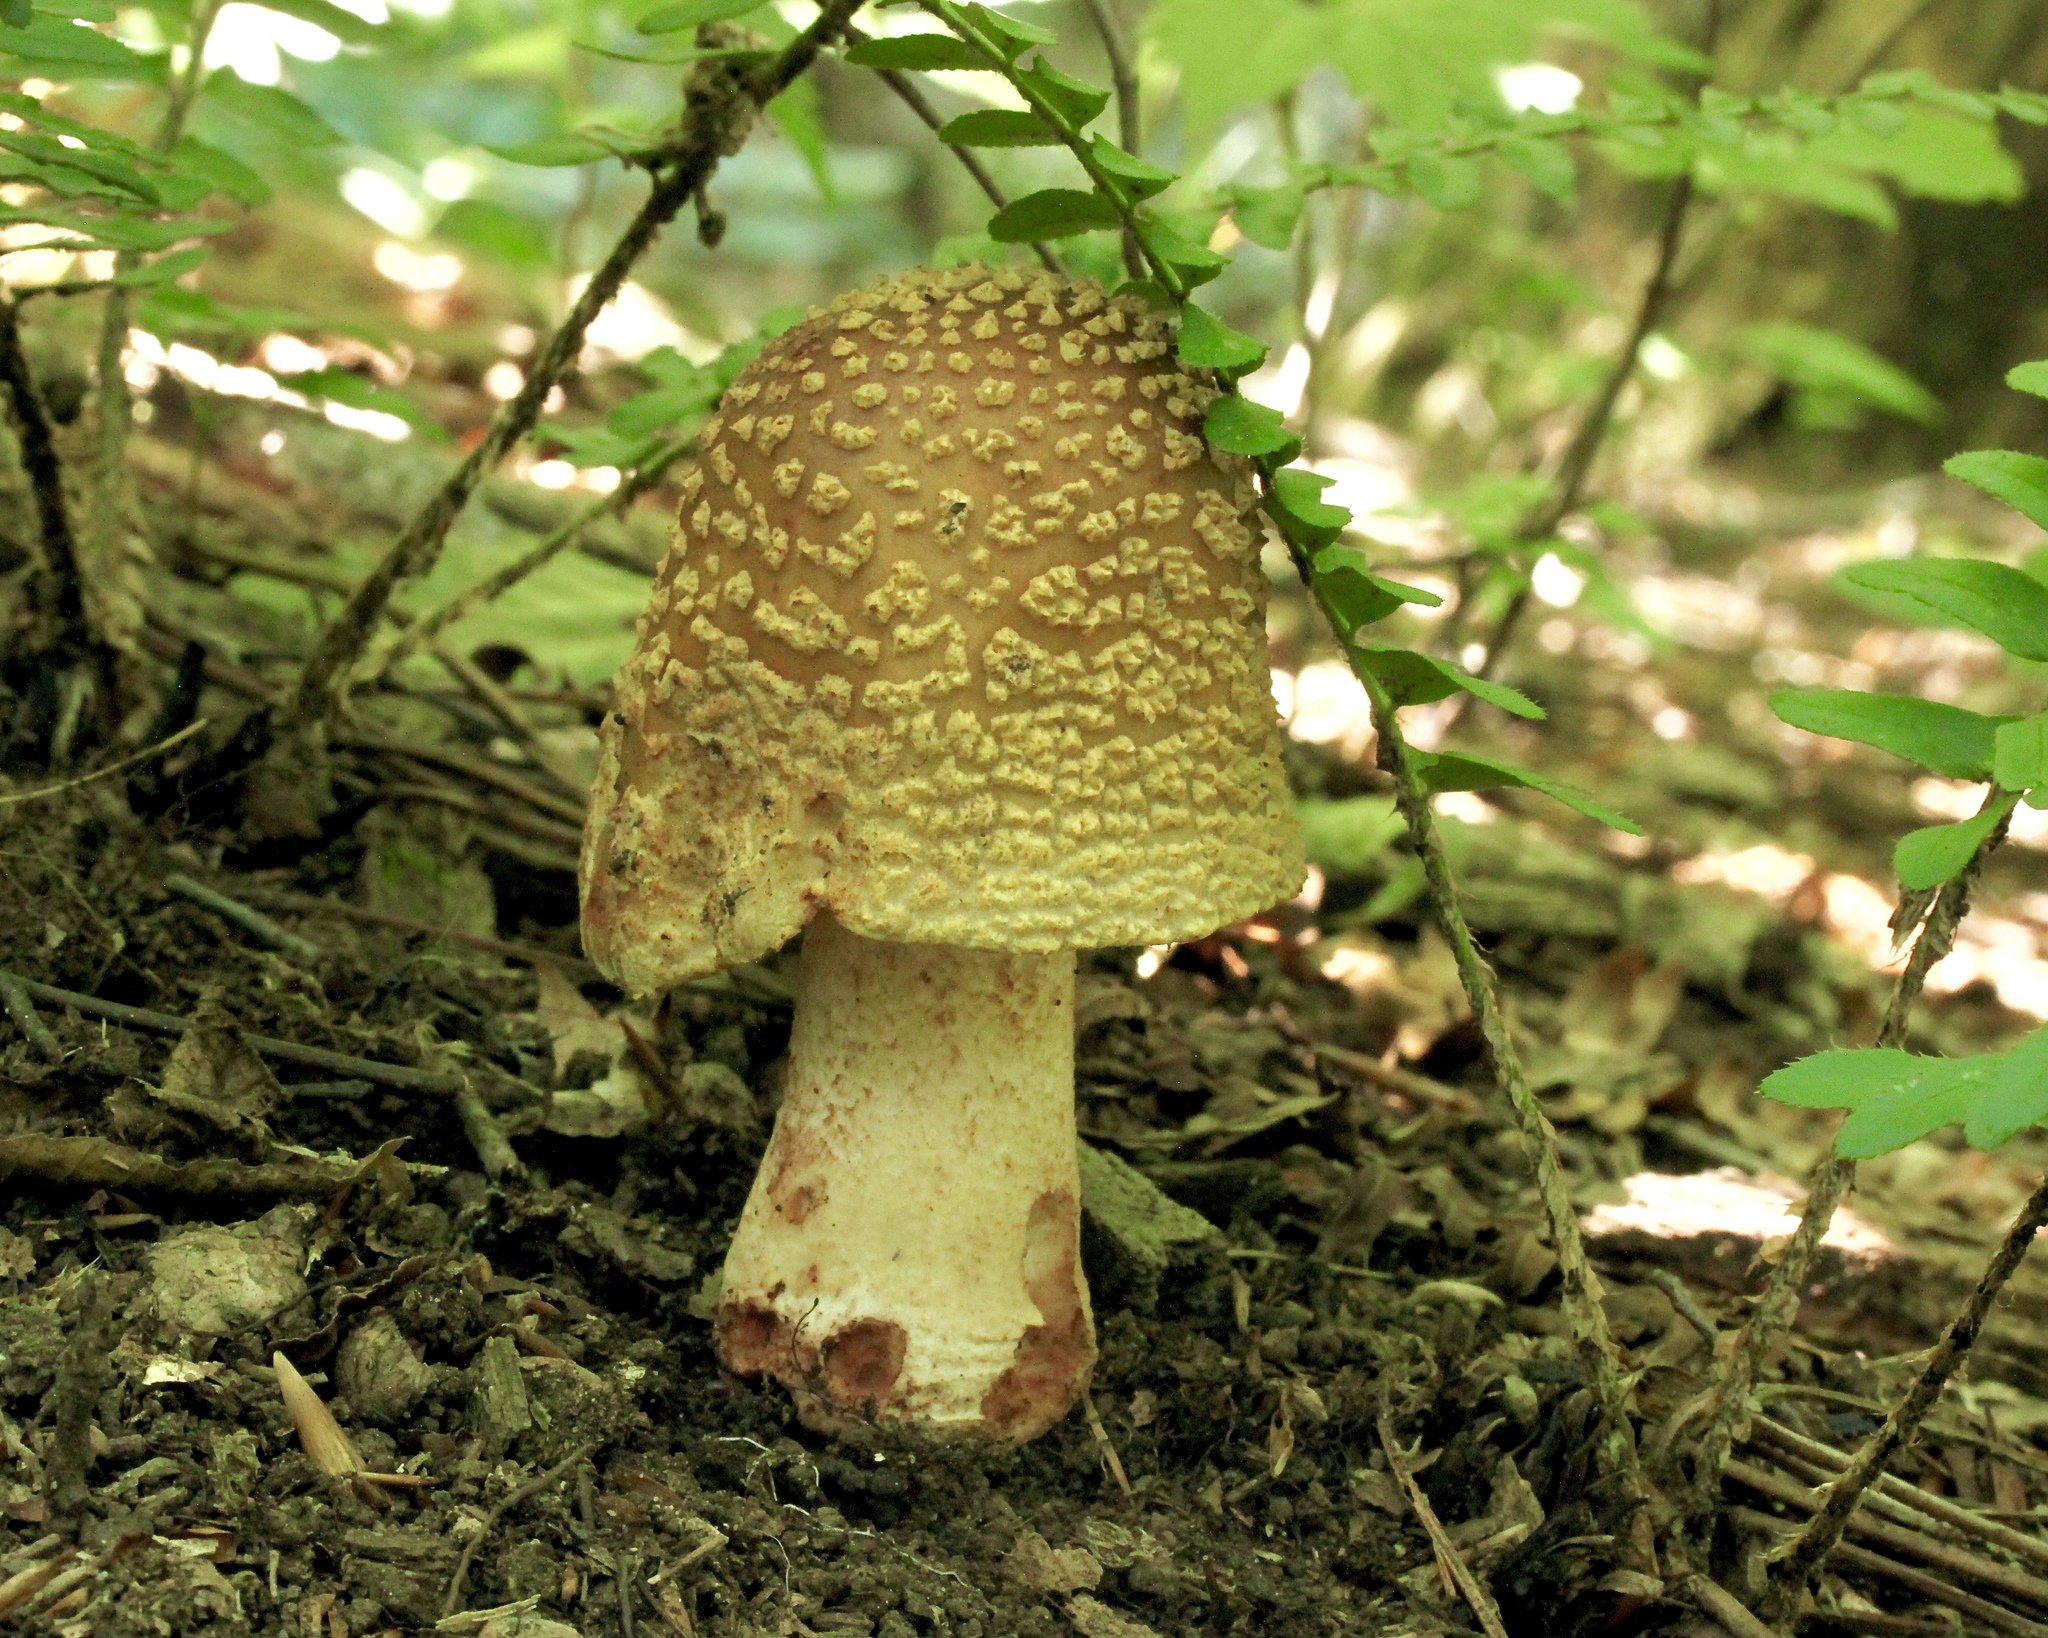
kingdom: Fungi
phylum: Basidiomycota
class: Agaricomycetes
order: Agaricales
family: Amanitaceae
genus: Amanita
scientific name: Amanita rubescens
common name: Blusher
